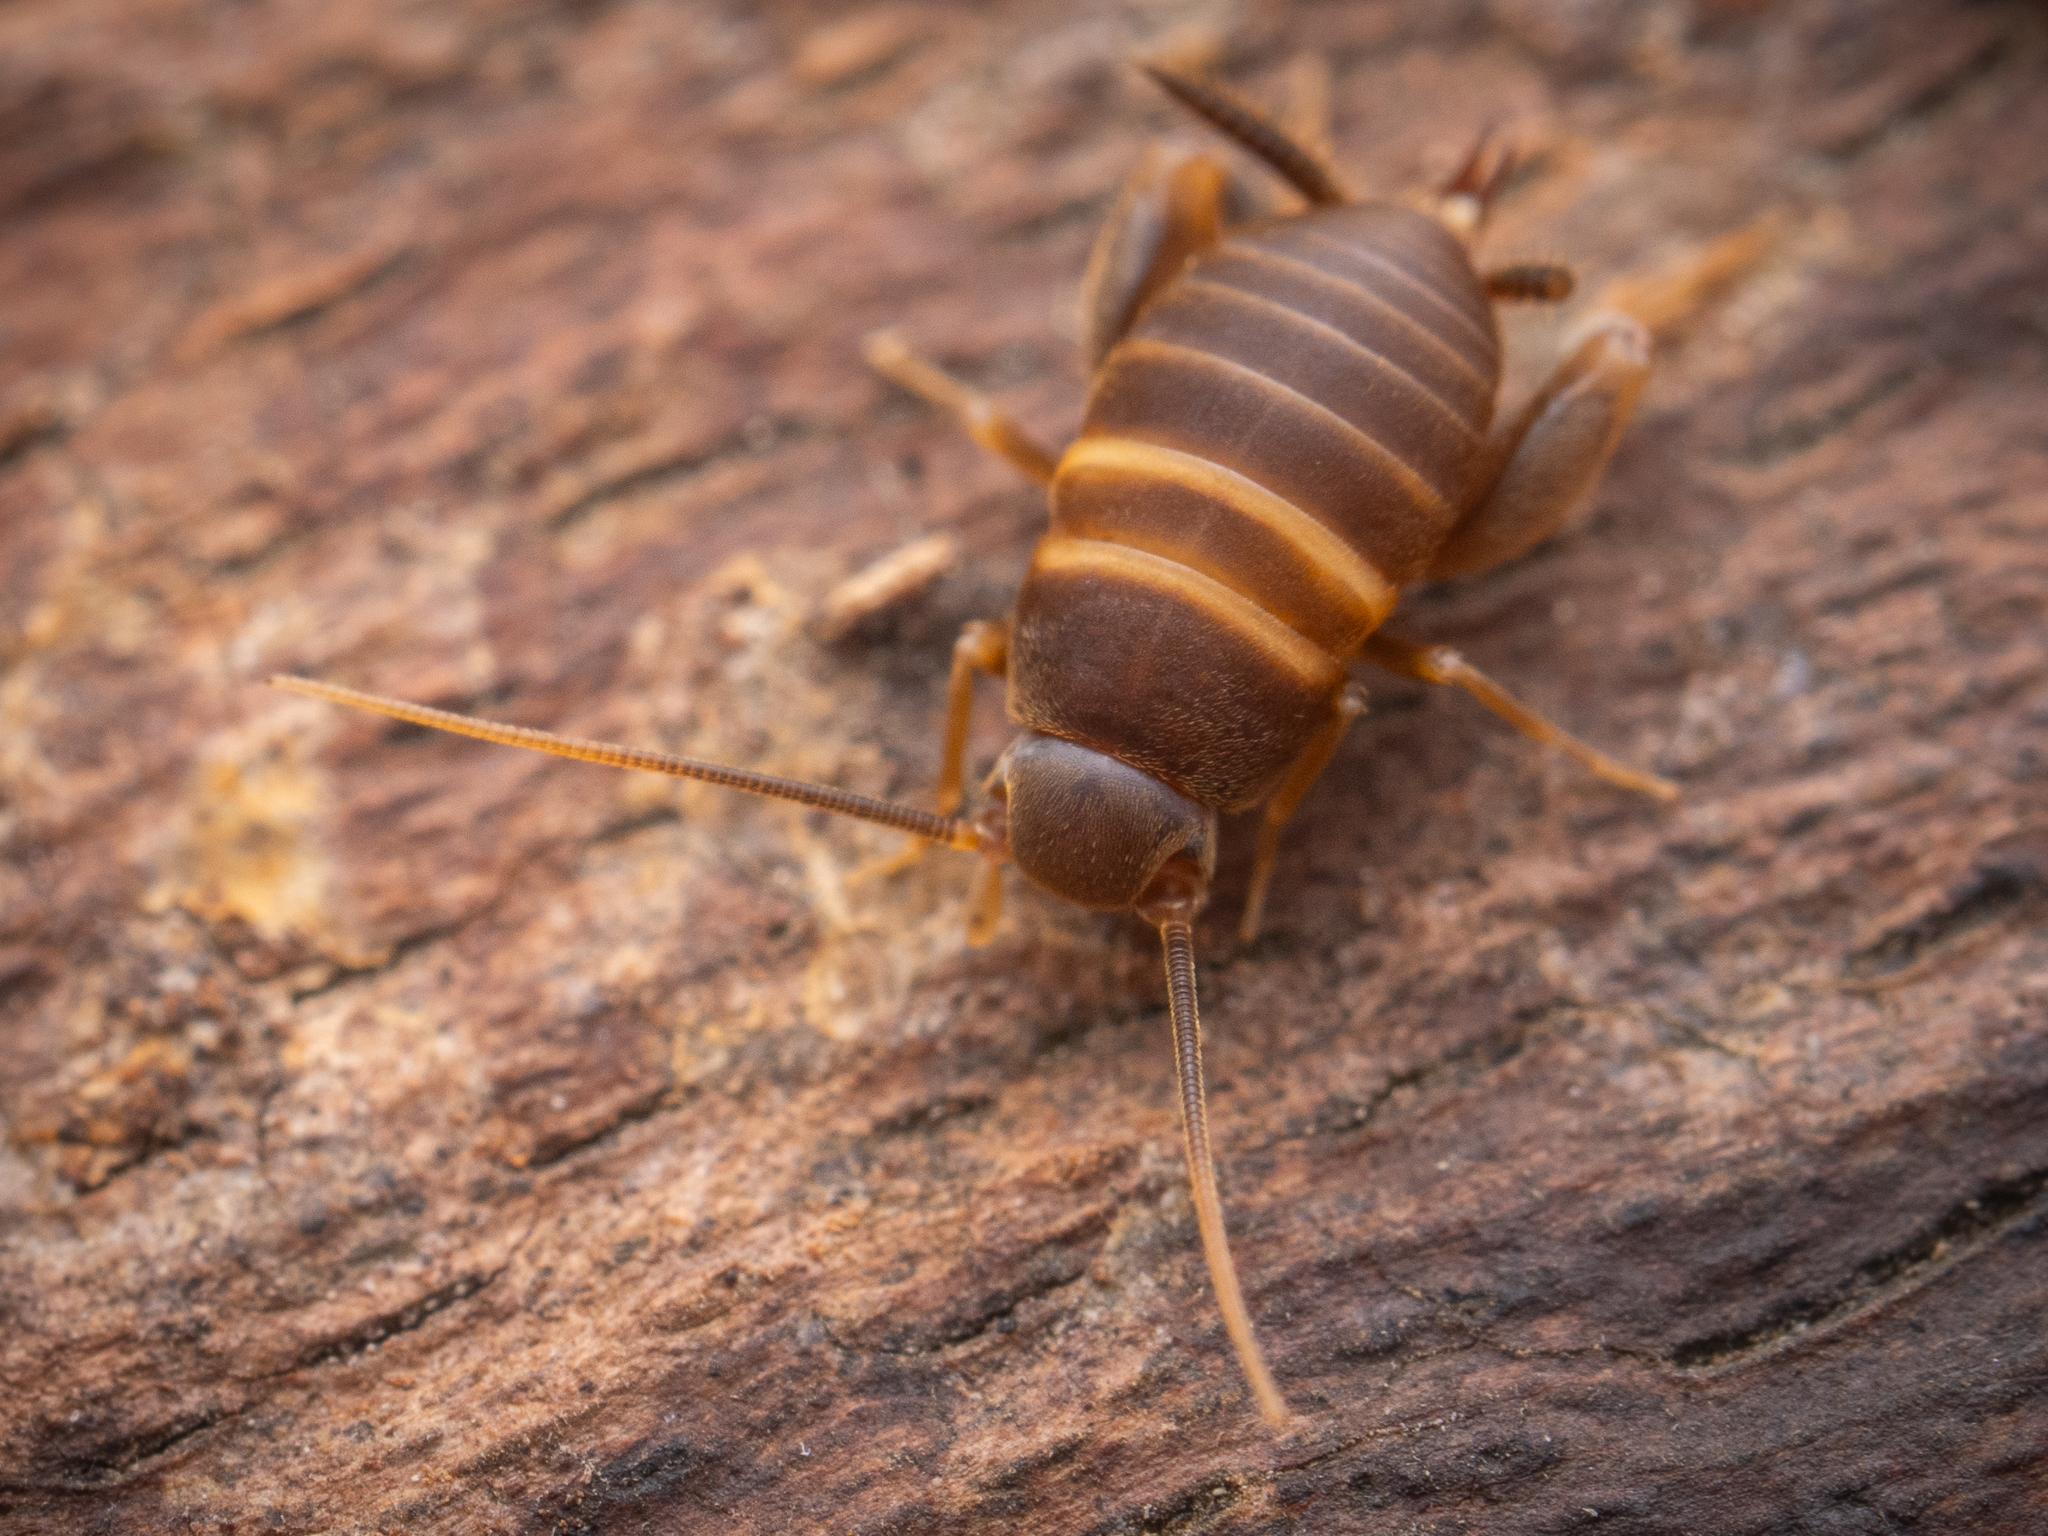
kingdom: Animalia
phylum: Arthropoda
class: Insecta
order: Orthoptera
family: Myrmecophilidae
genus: Myrmecophilus
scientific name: Myrmecophilus acervorum
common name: Ants-nest cricket
